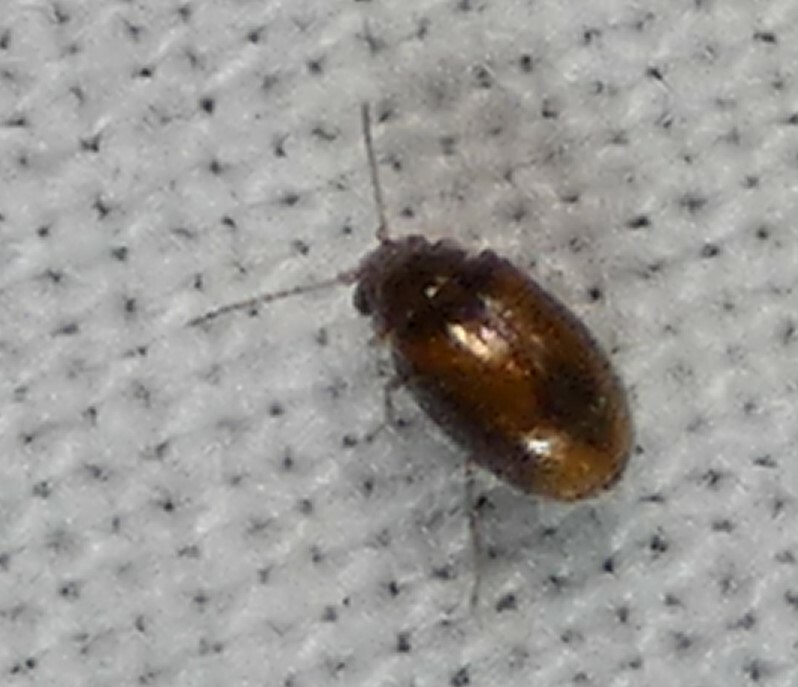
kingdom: Animalia
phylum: Arthropoda
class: Insecta
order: Coleoptera
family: Scirtidae
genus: Contacyphon
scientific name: Contacyphon
